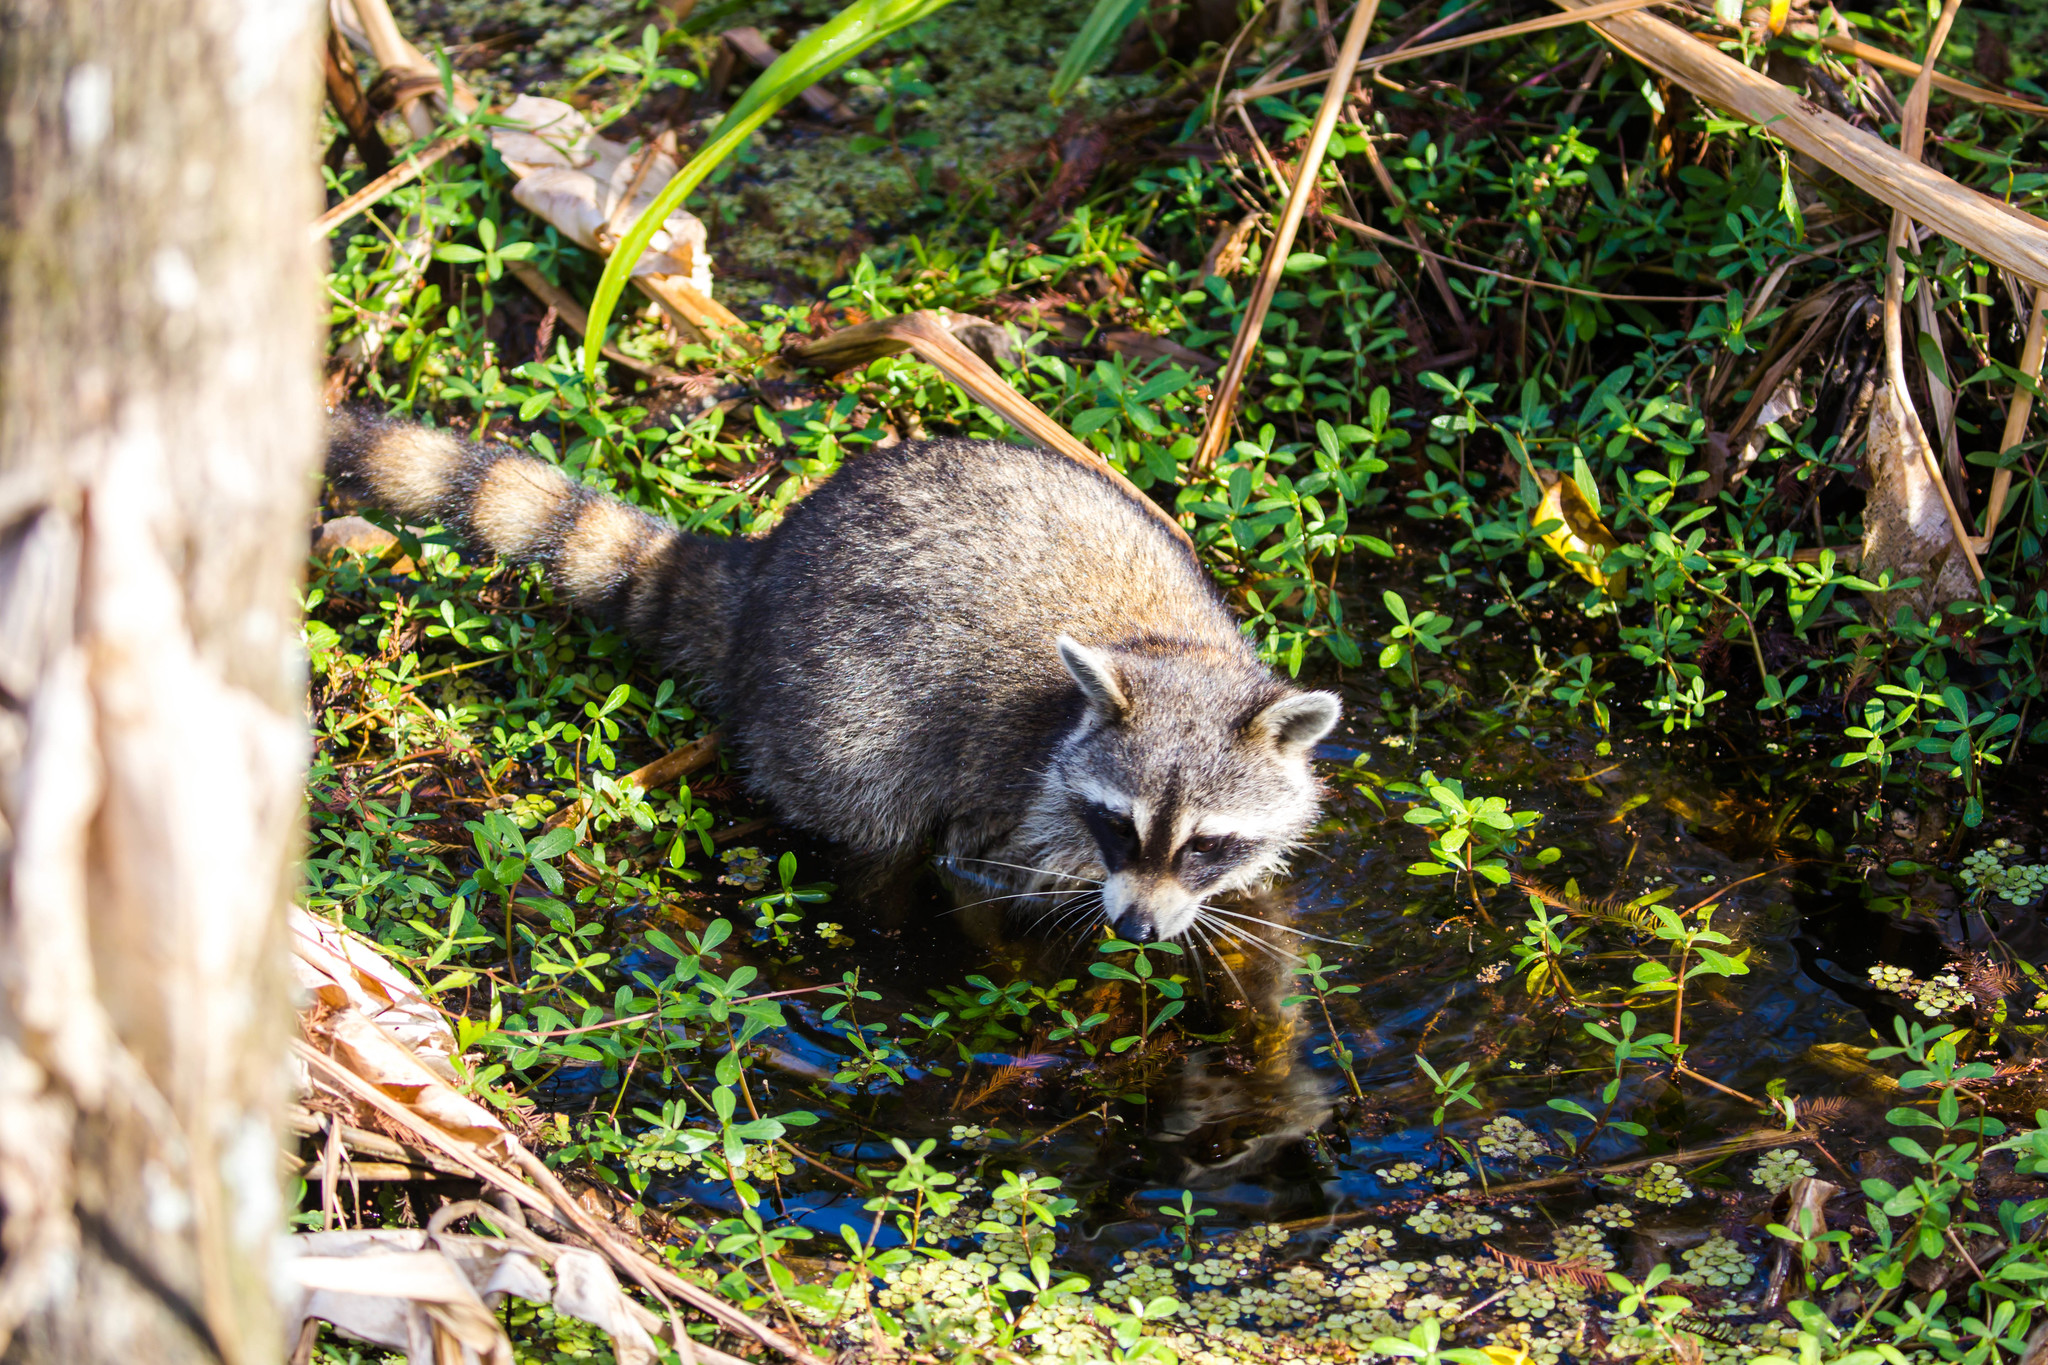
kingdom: Animalia
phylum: Chordata
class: Mammalia
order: Carnivora
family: Procyonidae
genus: Procyon
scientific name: Procyon lotor
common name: Raccoon
